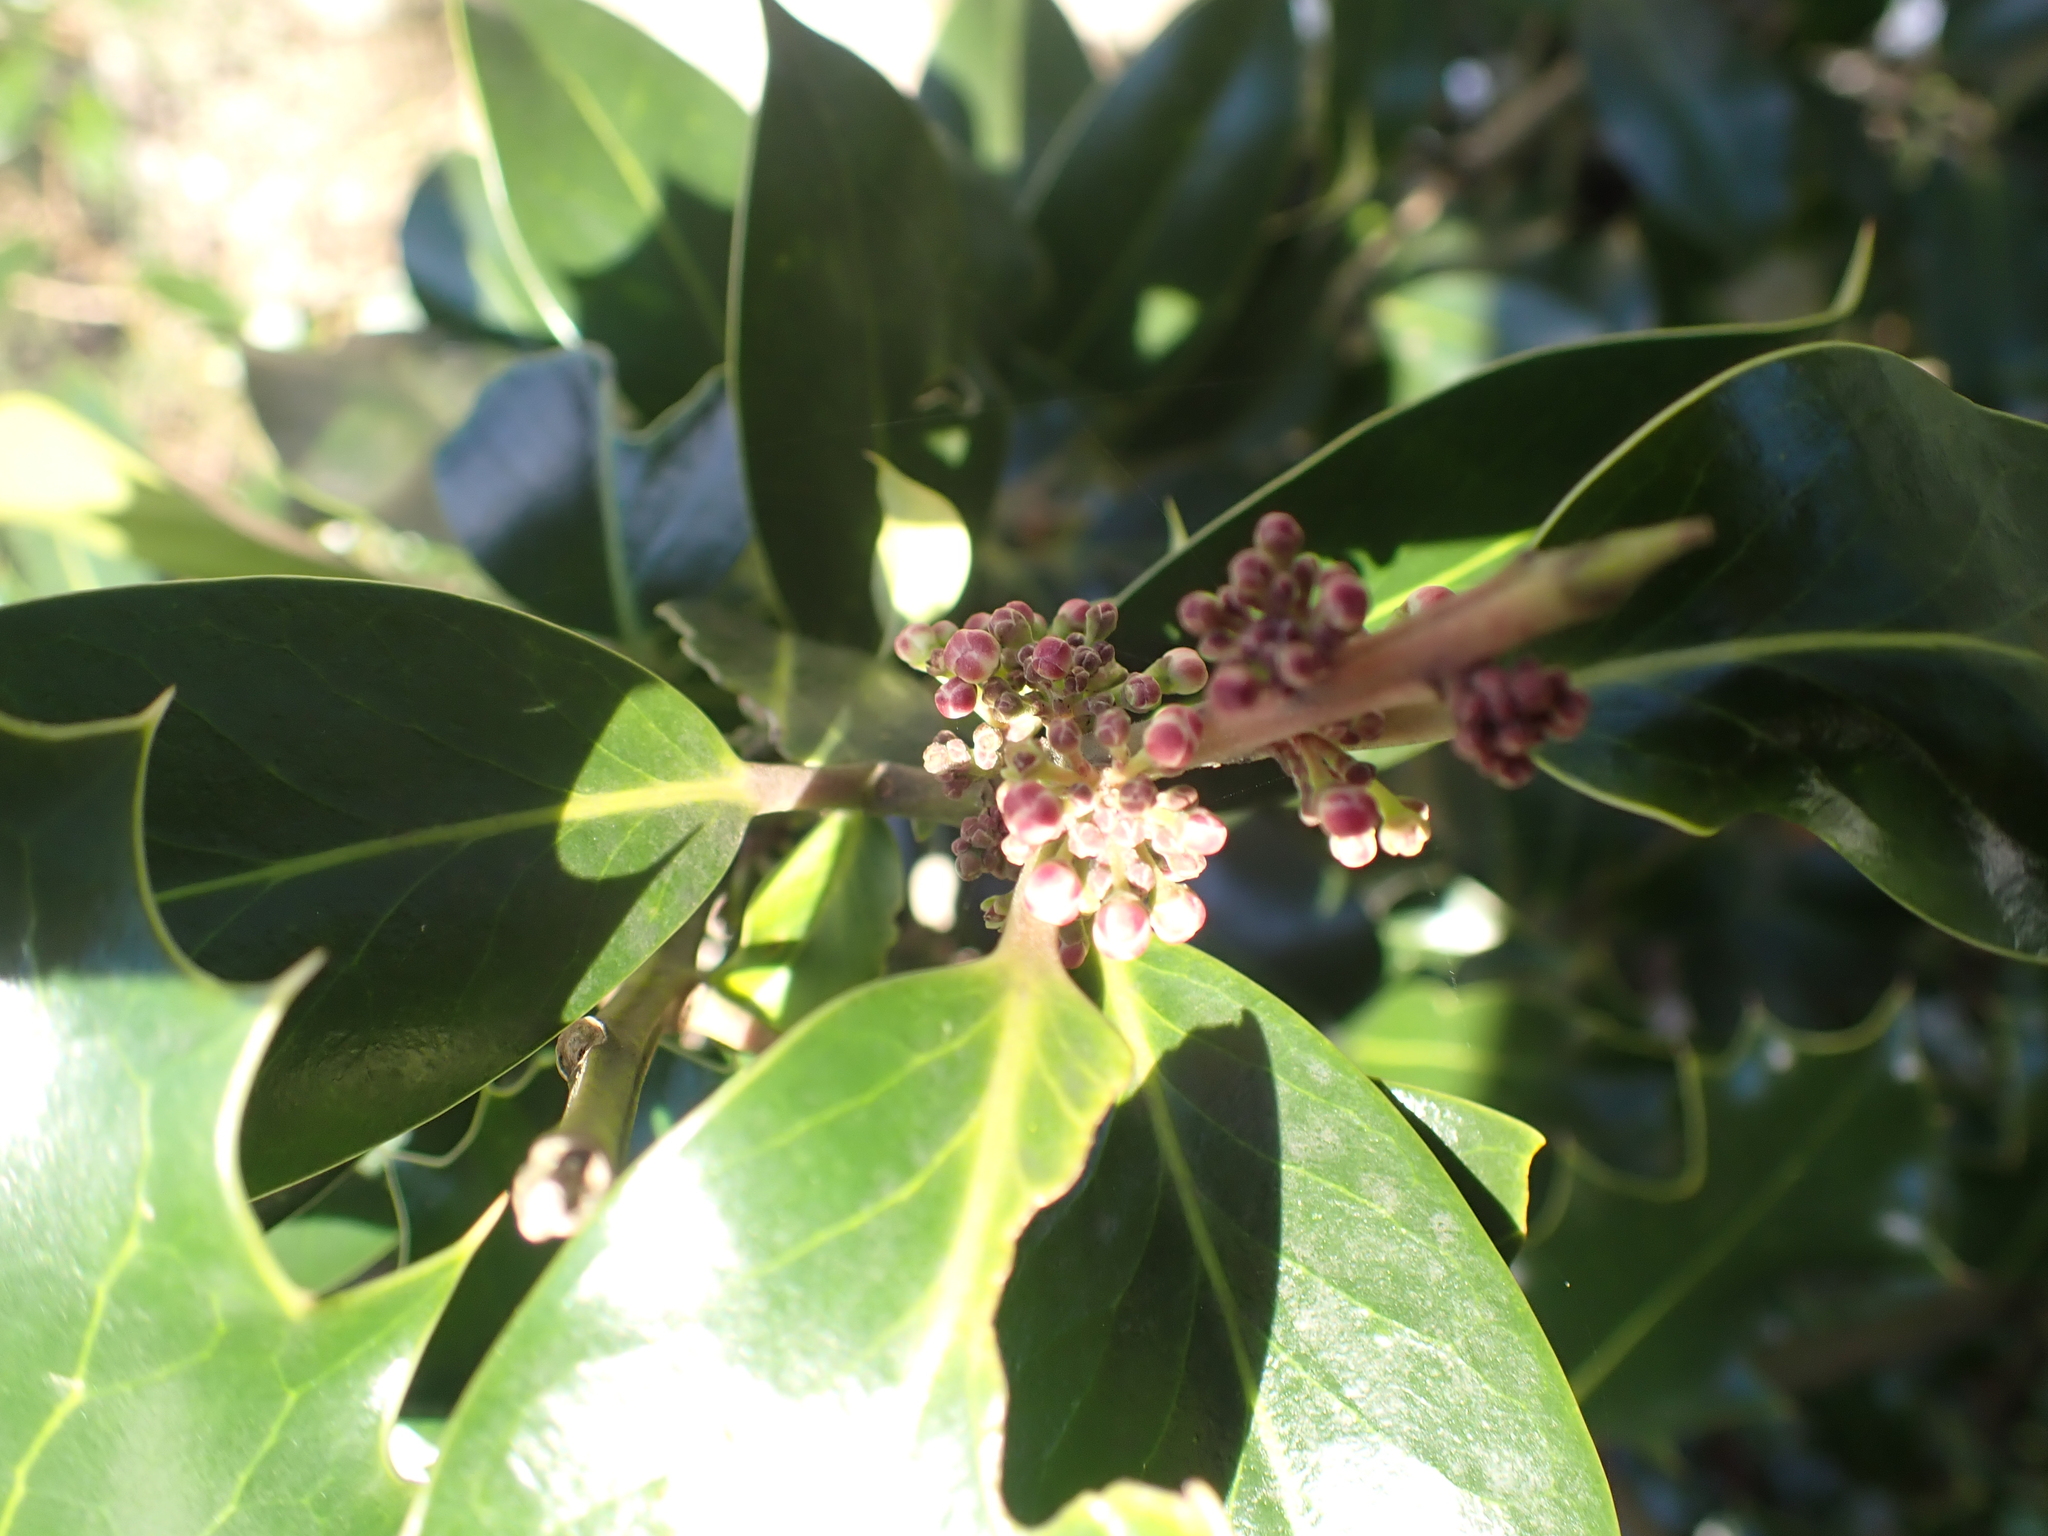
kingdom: Plantae
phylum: Tracheophyta
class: Magnoliopsida
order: Aquifoliales
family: Aquifoliaceae
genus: Ilex
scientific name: Ilex aquifolium
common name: English holly
